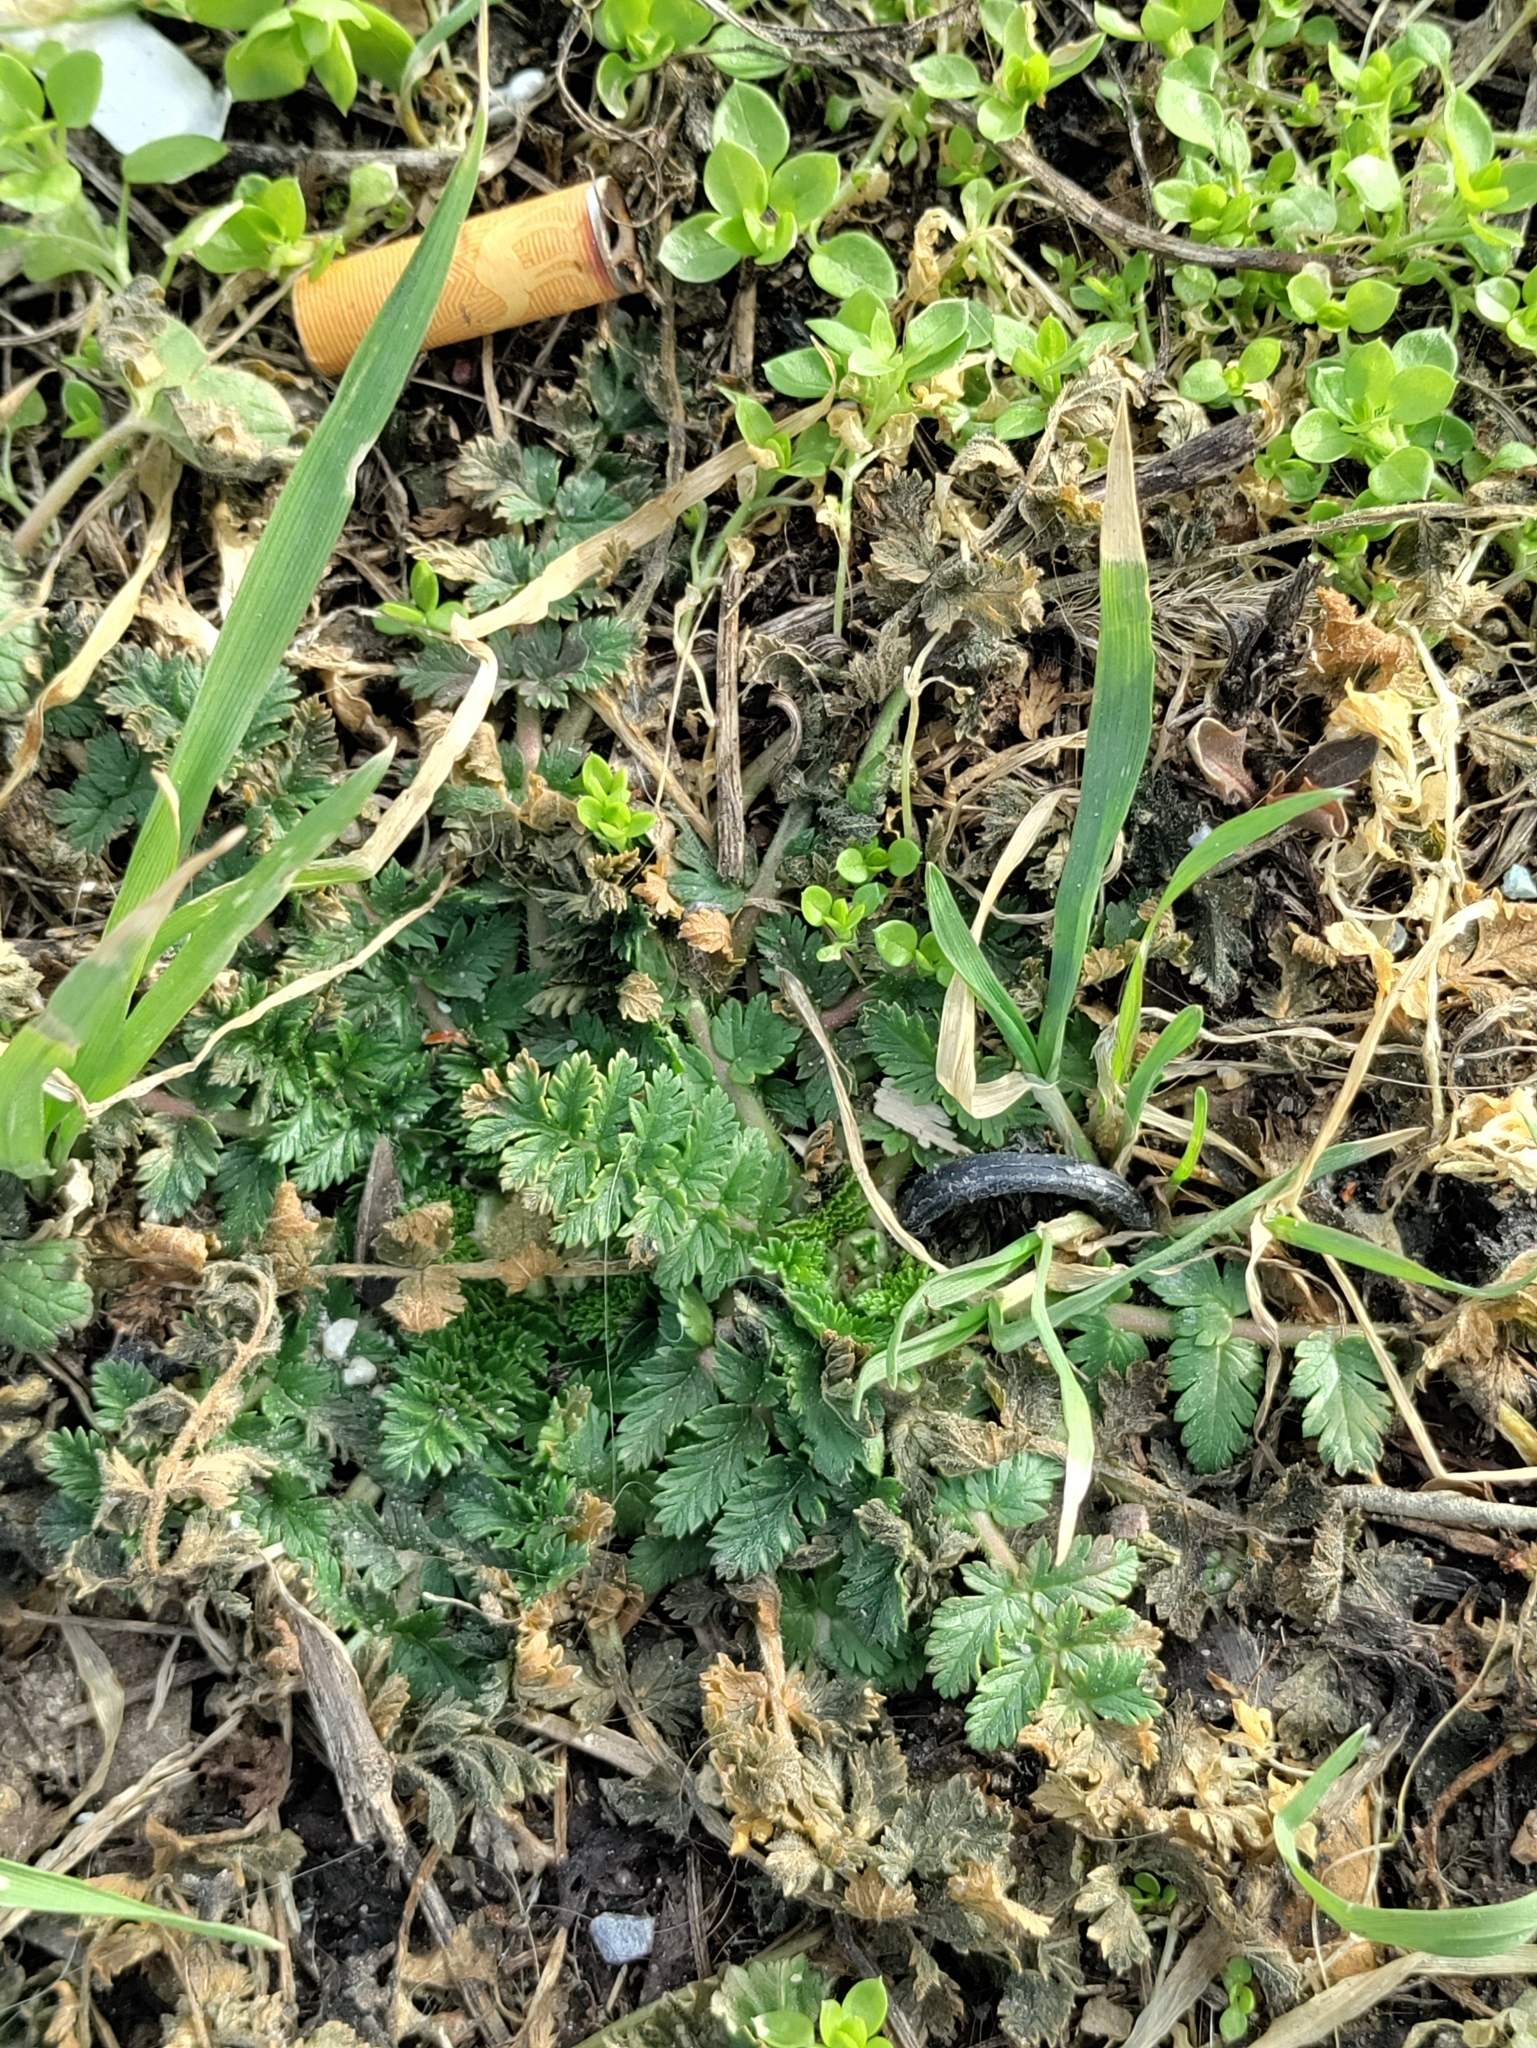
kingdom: Plantae
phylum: Tracheophyta
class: Magnoliopsida
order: Geraniales
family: Geraniaceae
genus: Erodium
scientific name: Erodium cicutarium
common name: Common stork's-bill
